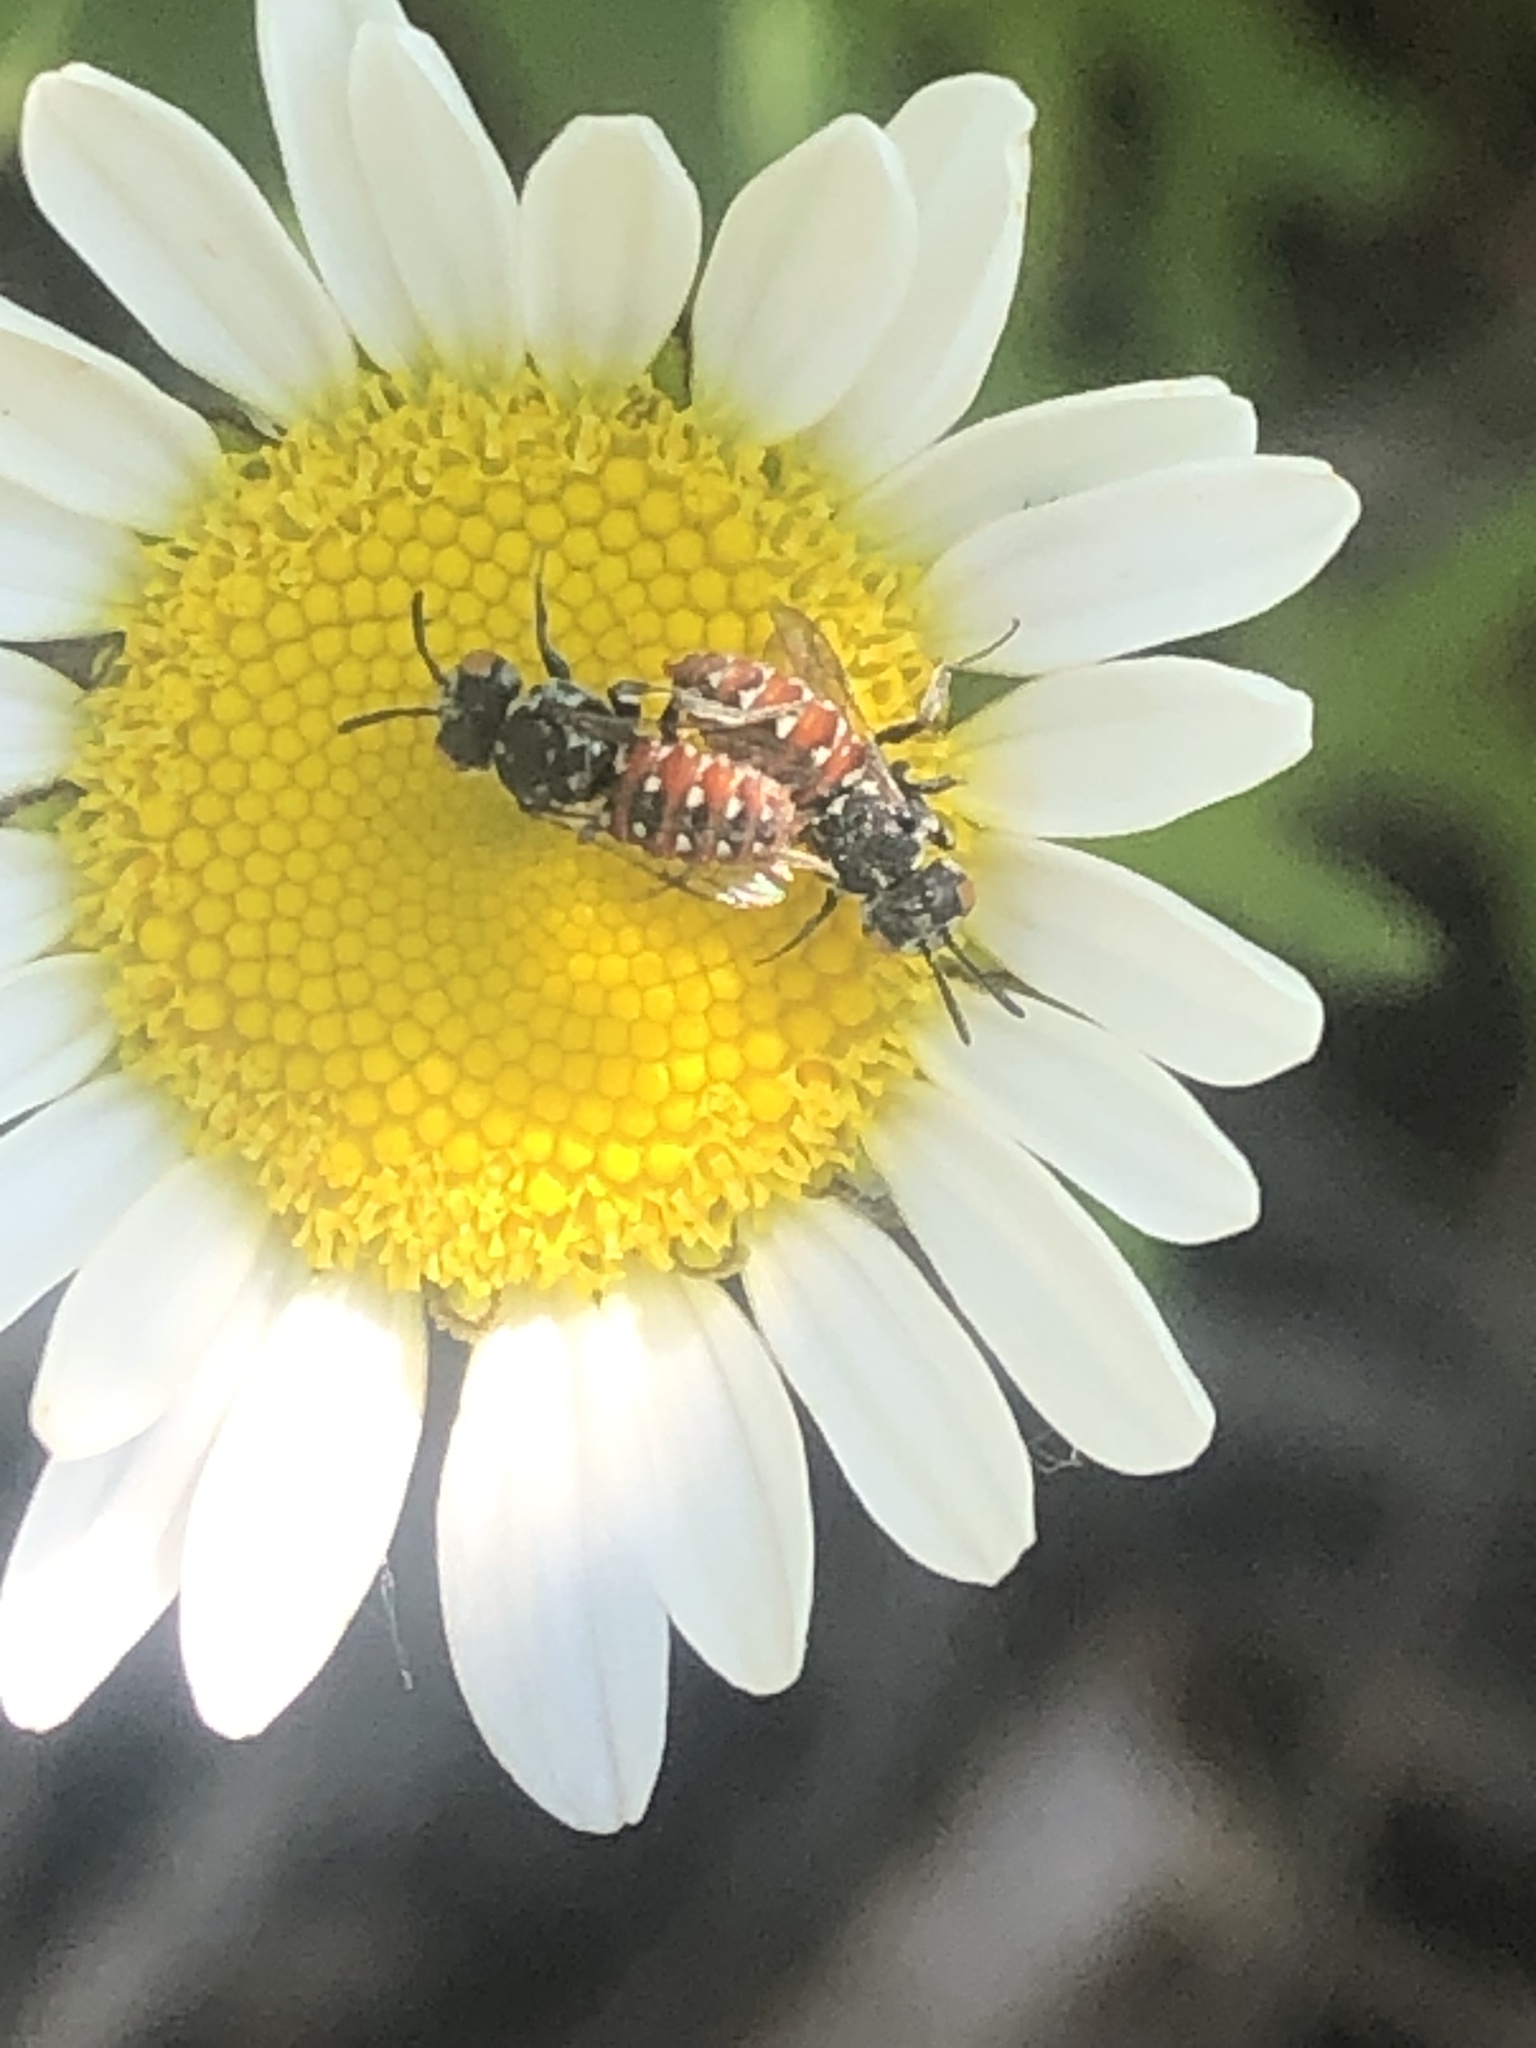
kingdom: Animalia
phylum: Arthropoda
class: Insecta
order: Hymenoptera
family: Apidae
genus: Holcopasites
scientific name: Holcopasites calliopsidis
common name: Calliopsis cuckoo nomad bee
